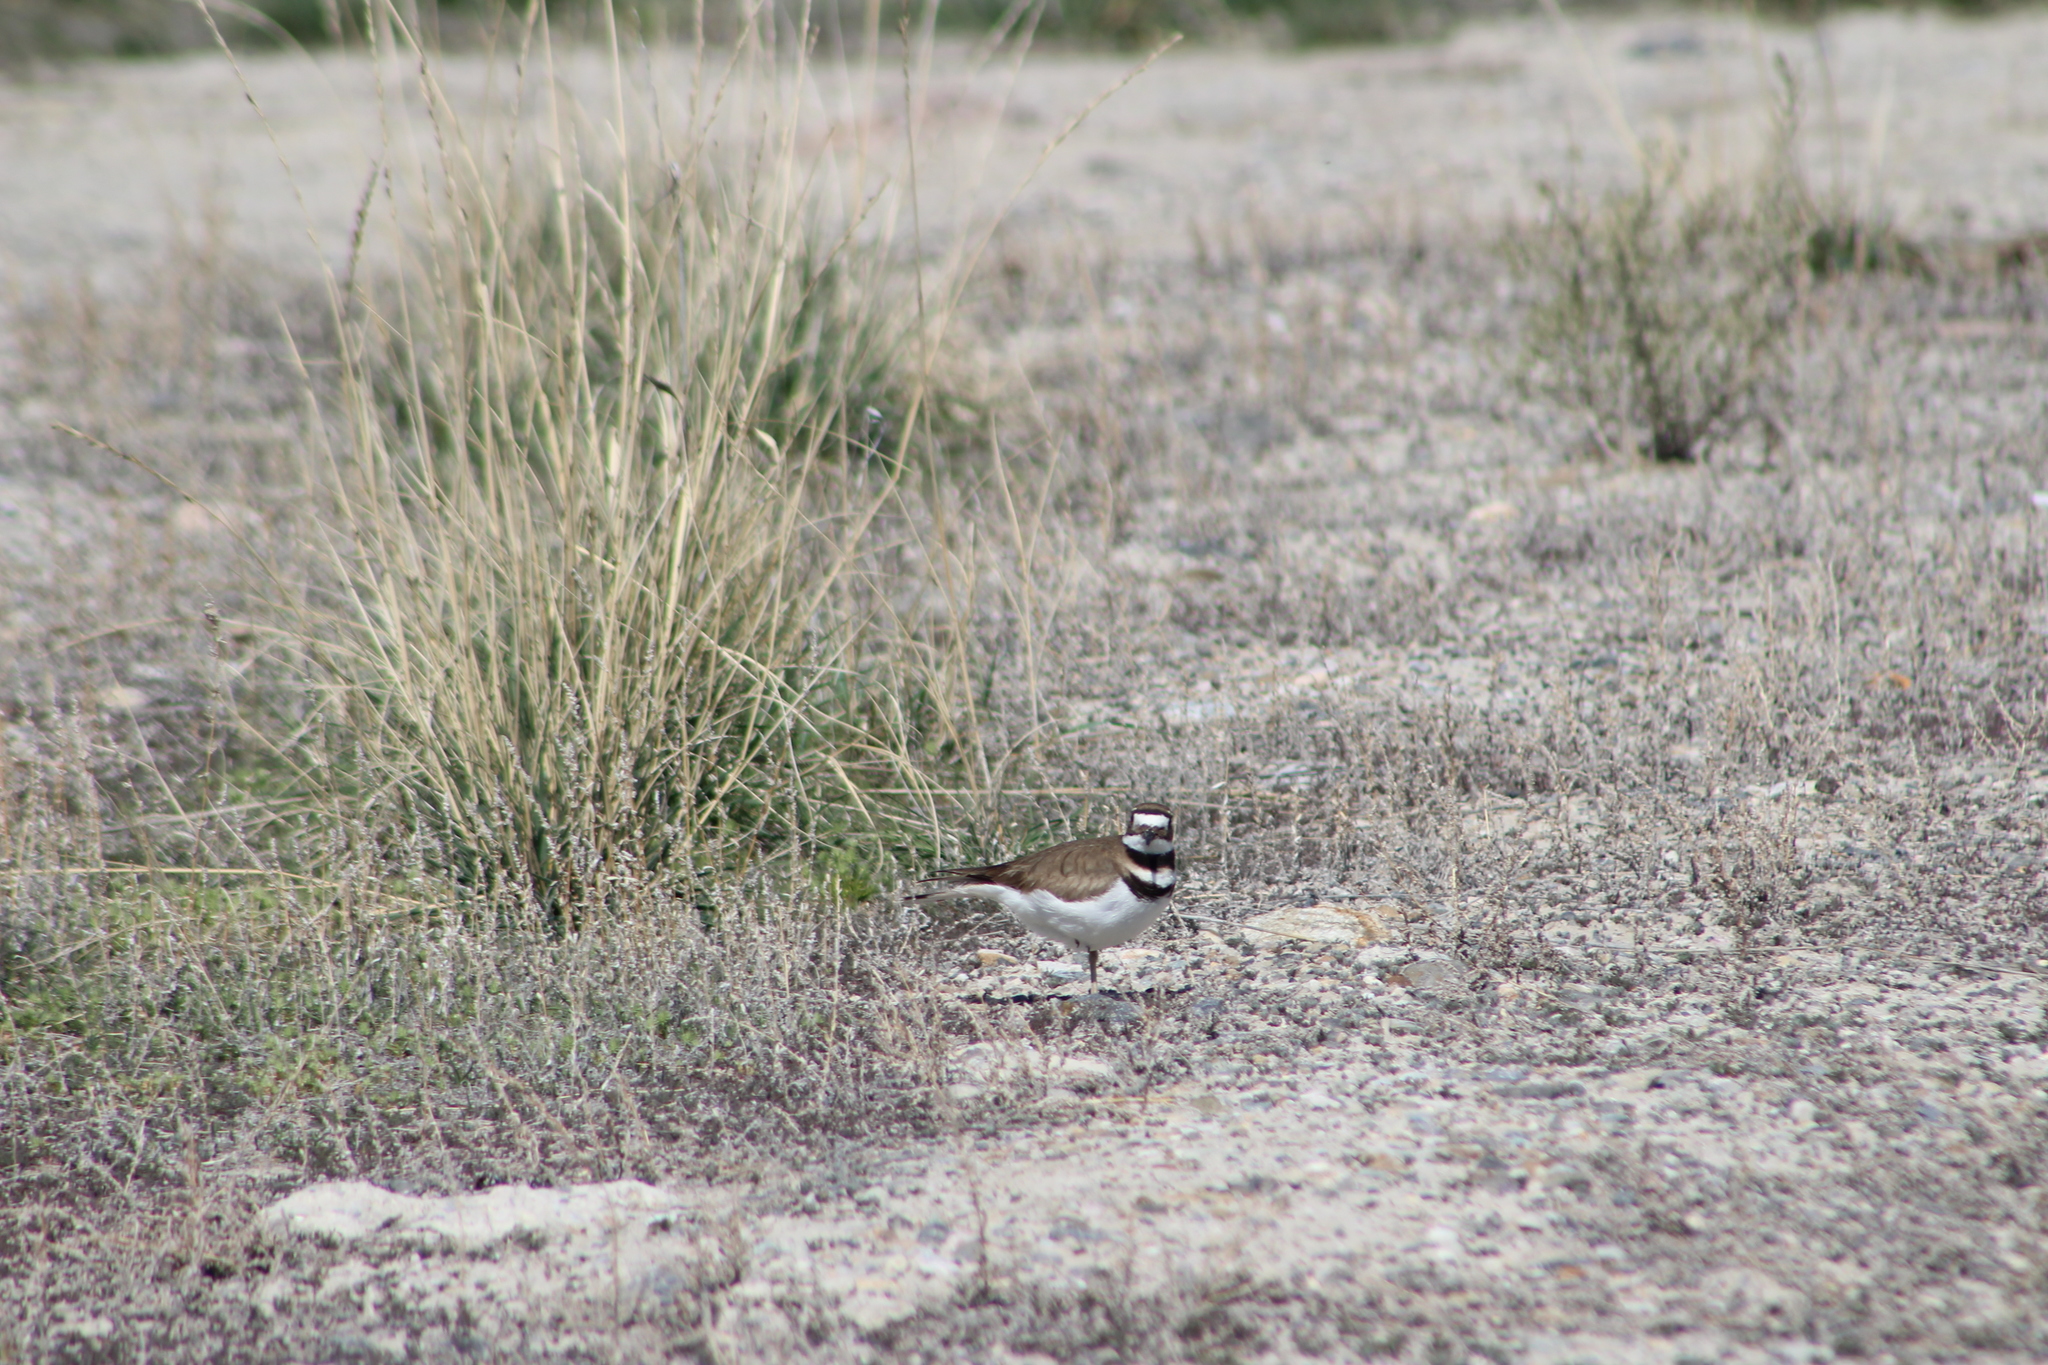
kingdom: Animalia
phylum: Chordata
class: Aves
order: Charadriiformes
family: Charadriidae
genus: Charadrius
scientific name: Charadrius vociferus
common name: Killdeer
